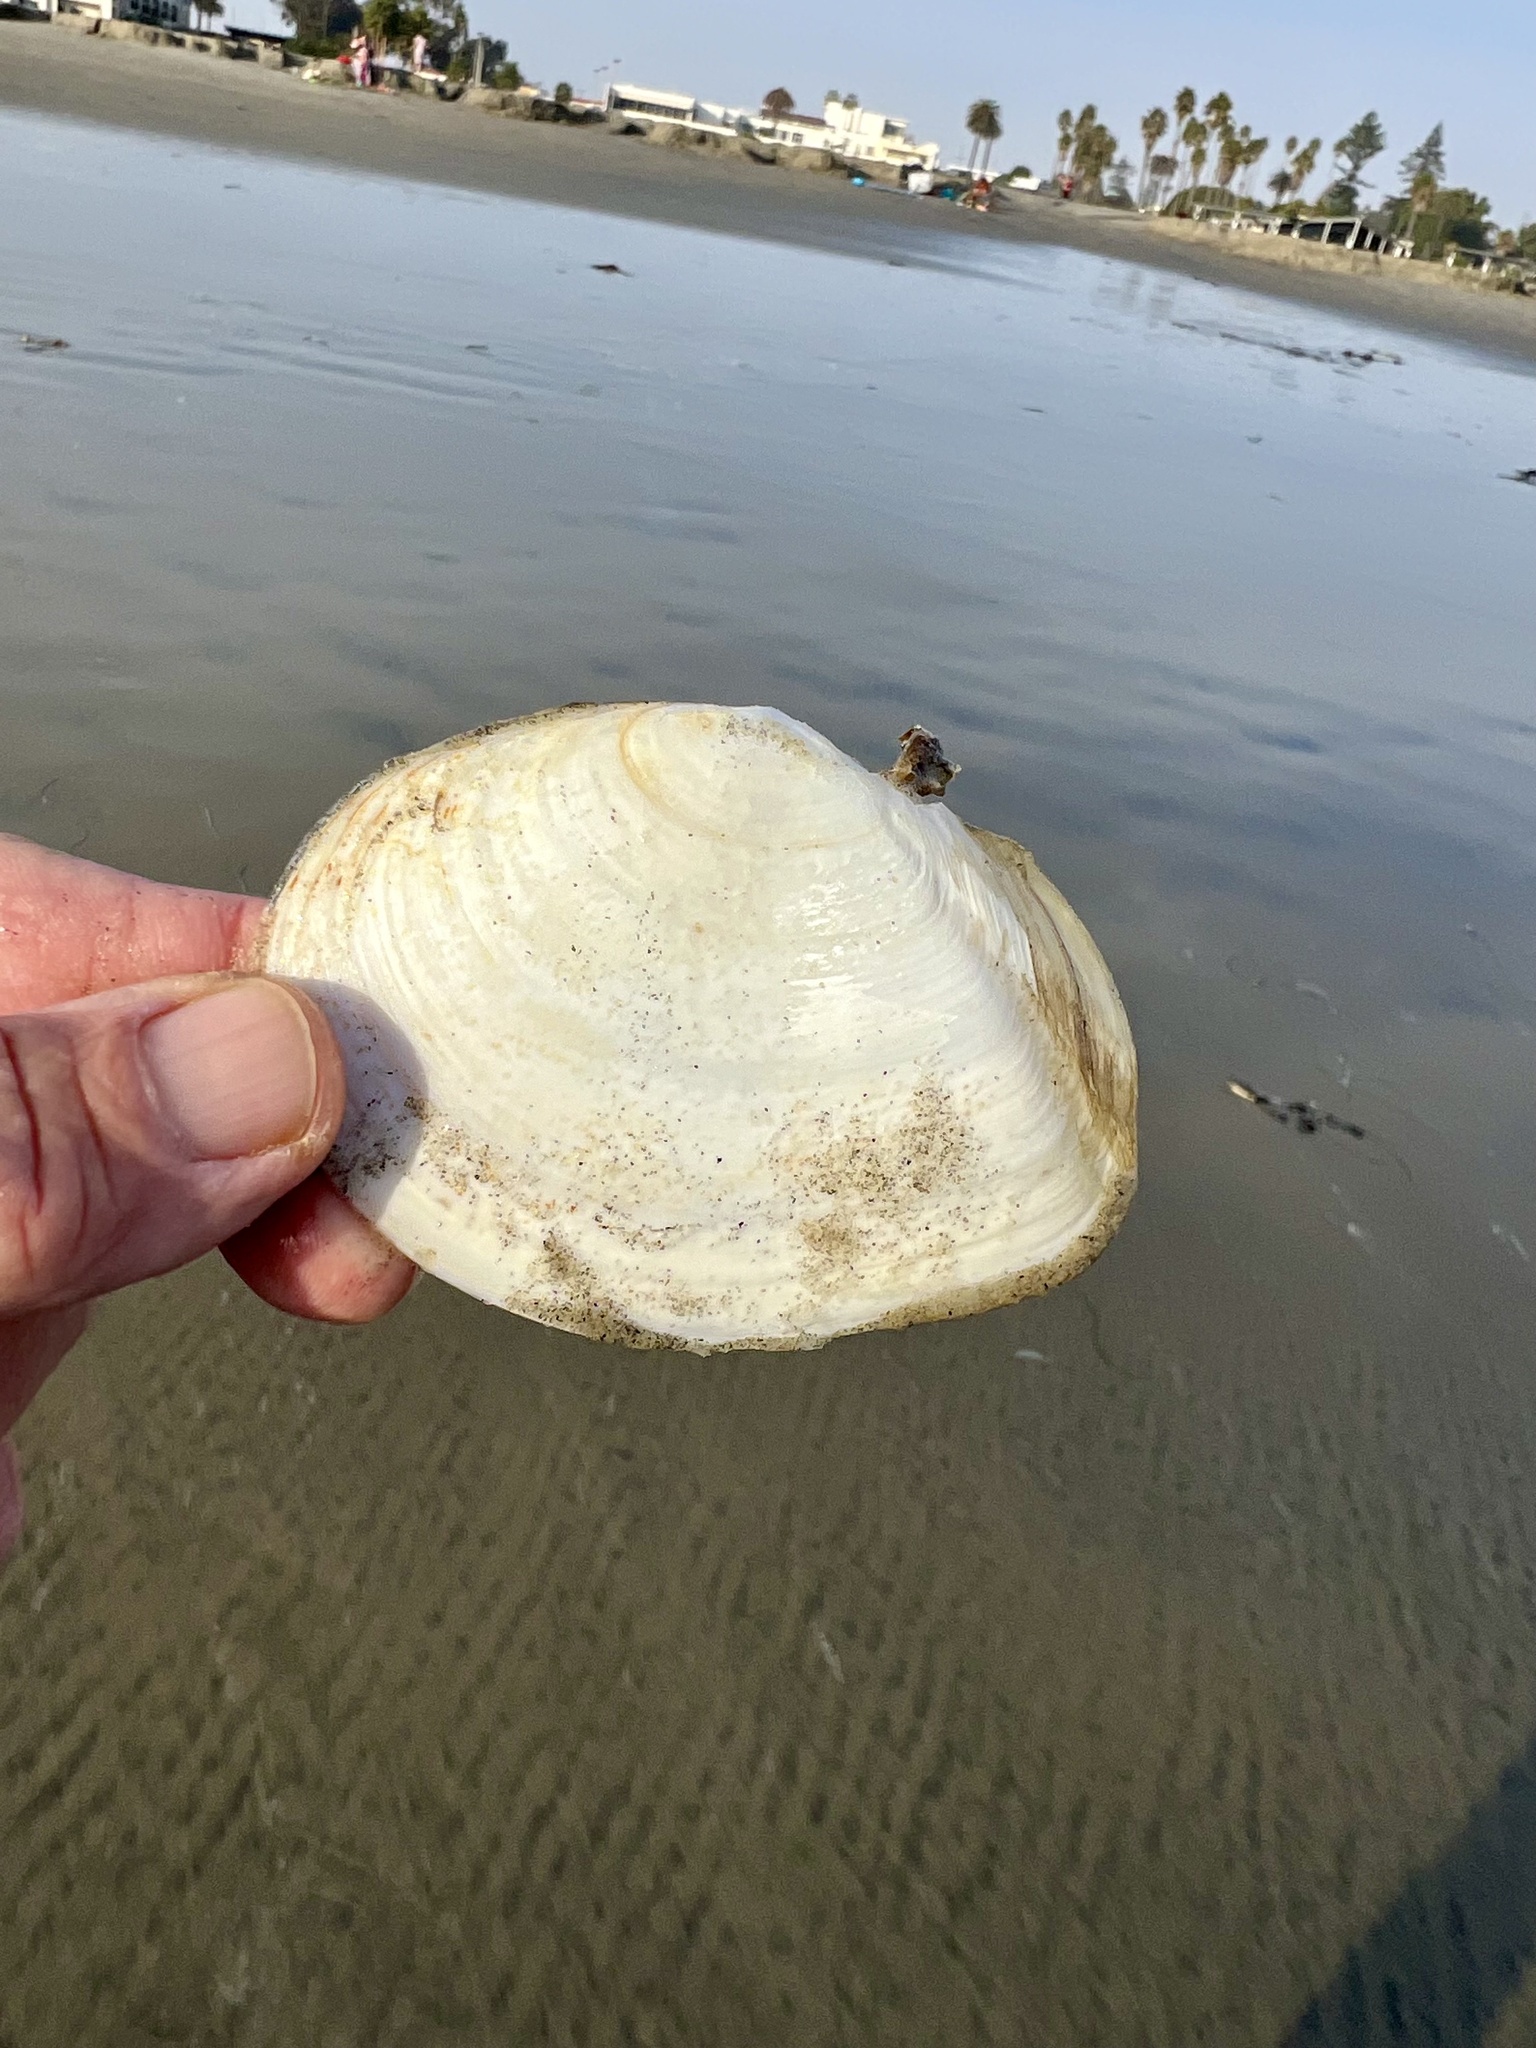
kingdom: Animalia
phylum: Mollusca
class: Bivalvia
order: Cardiida
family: Tellinidae
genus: Rexithaerus
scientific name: Rexithaerus secta
